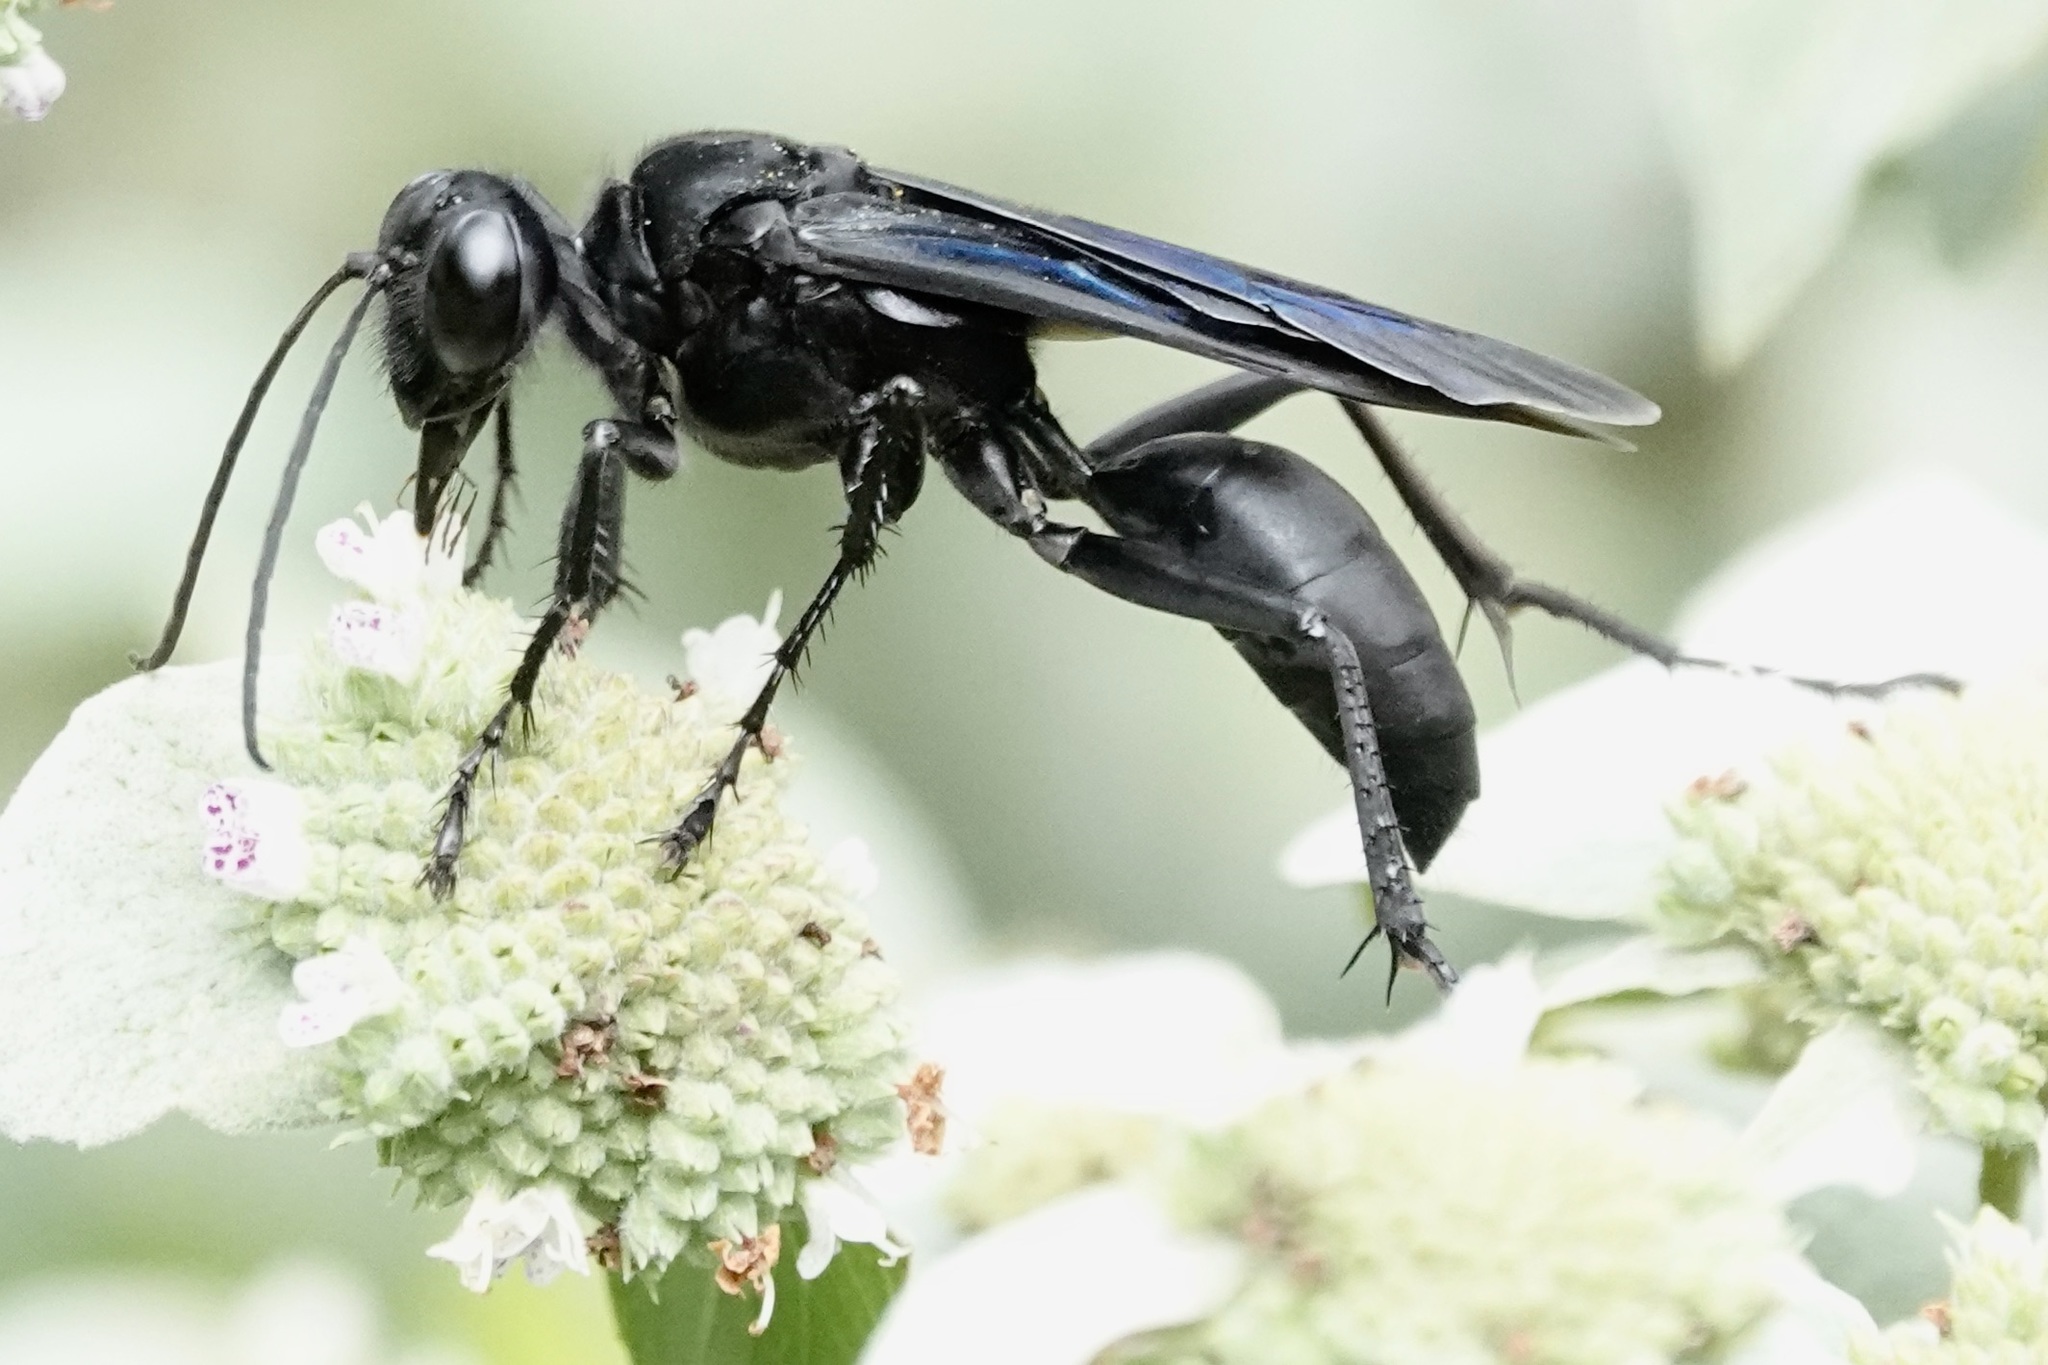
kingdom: Animalia
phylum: Arthropoda
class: Insecta
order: Hymenoptera
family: Sphecidae
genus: Sphex
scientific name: Sphex pensylvanicus
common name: Great black digger wasp
